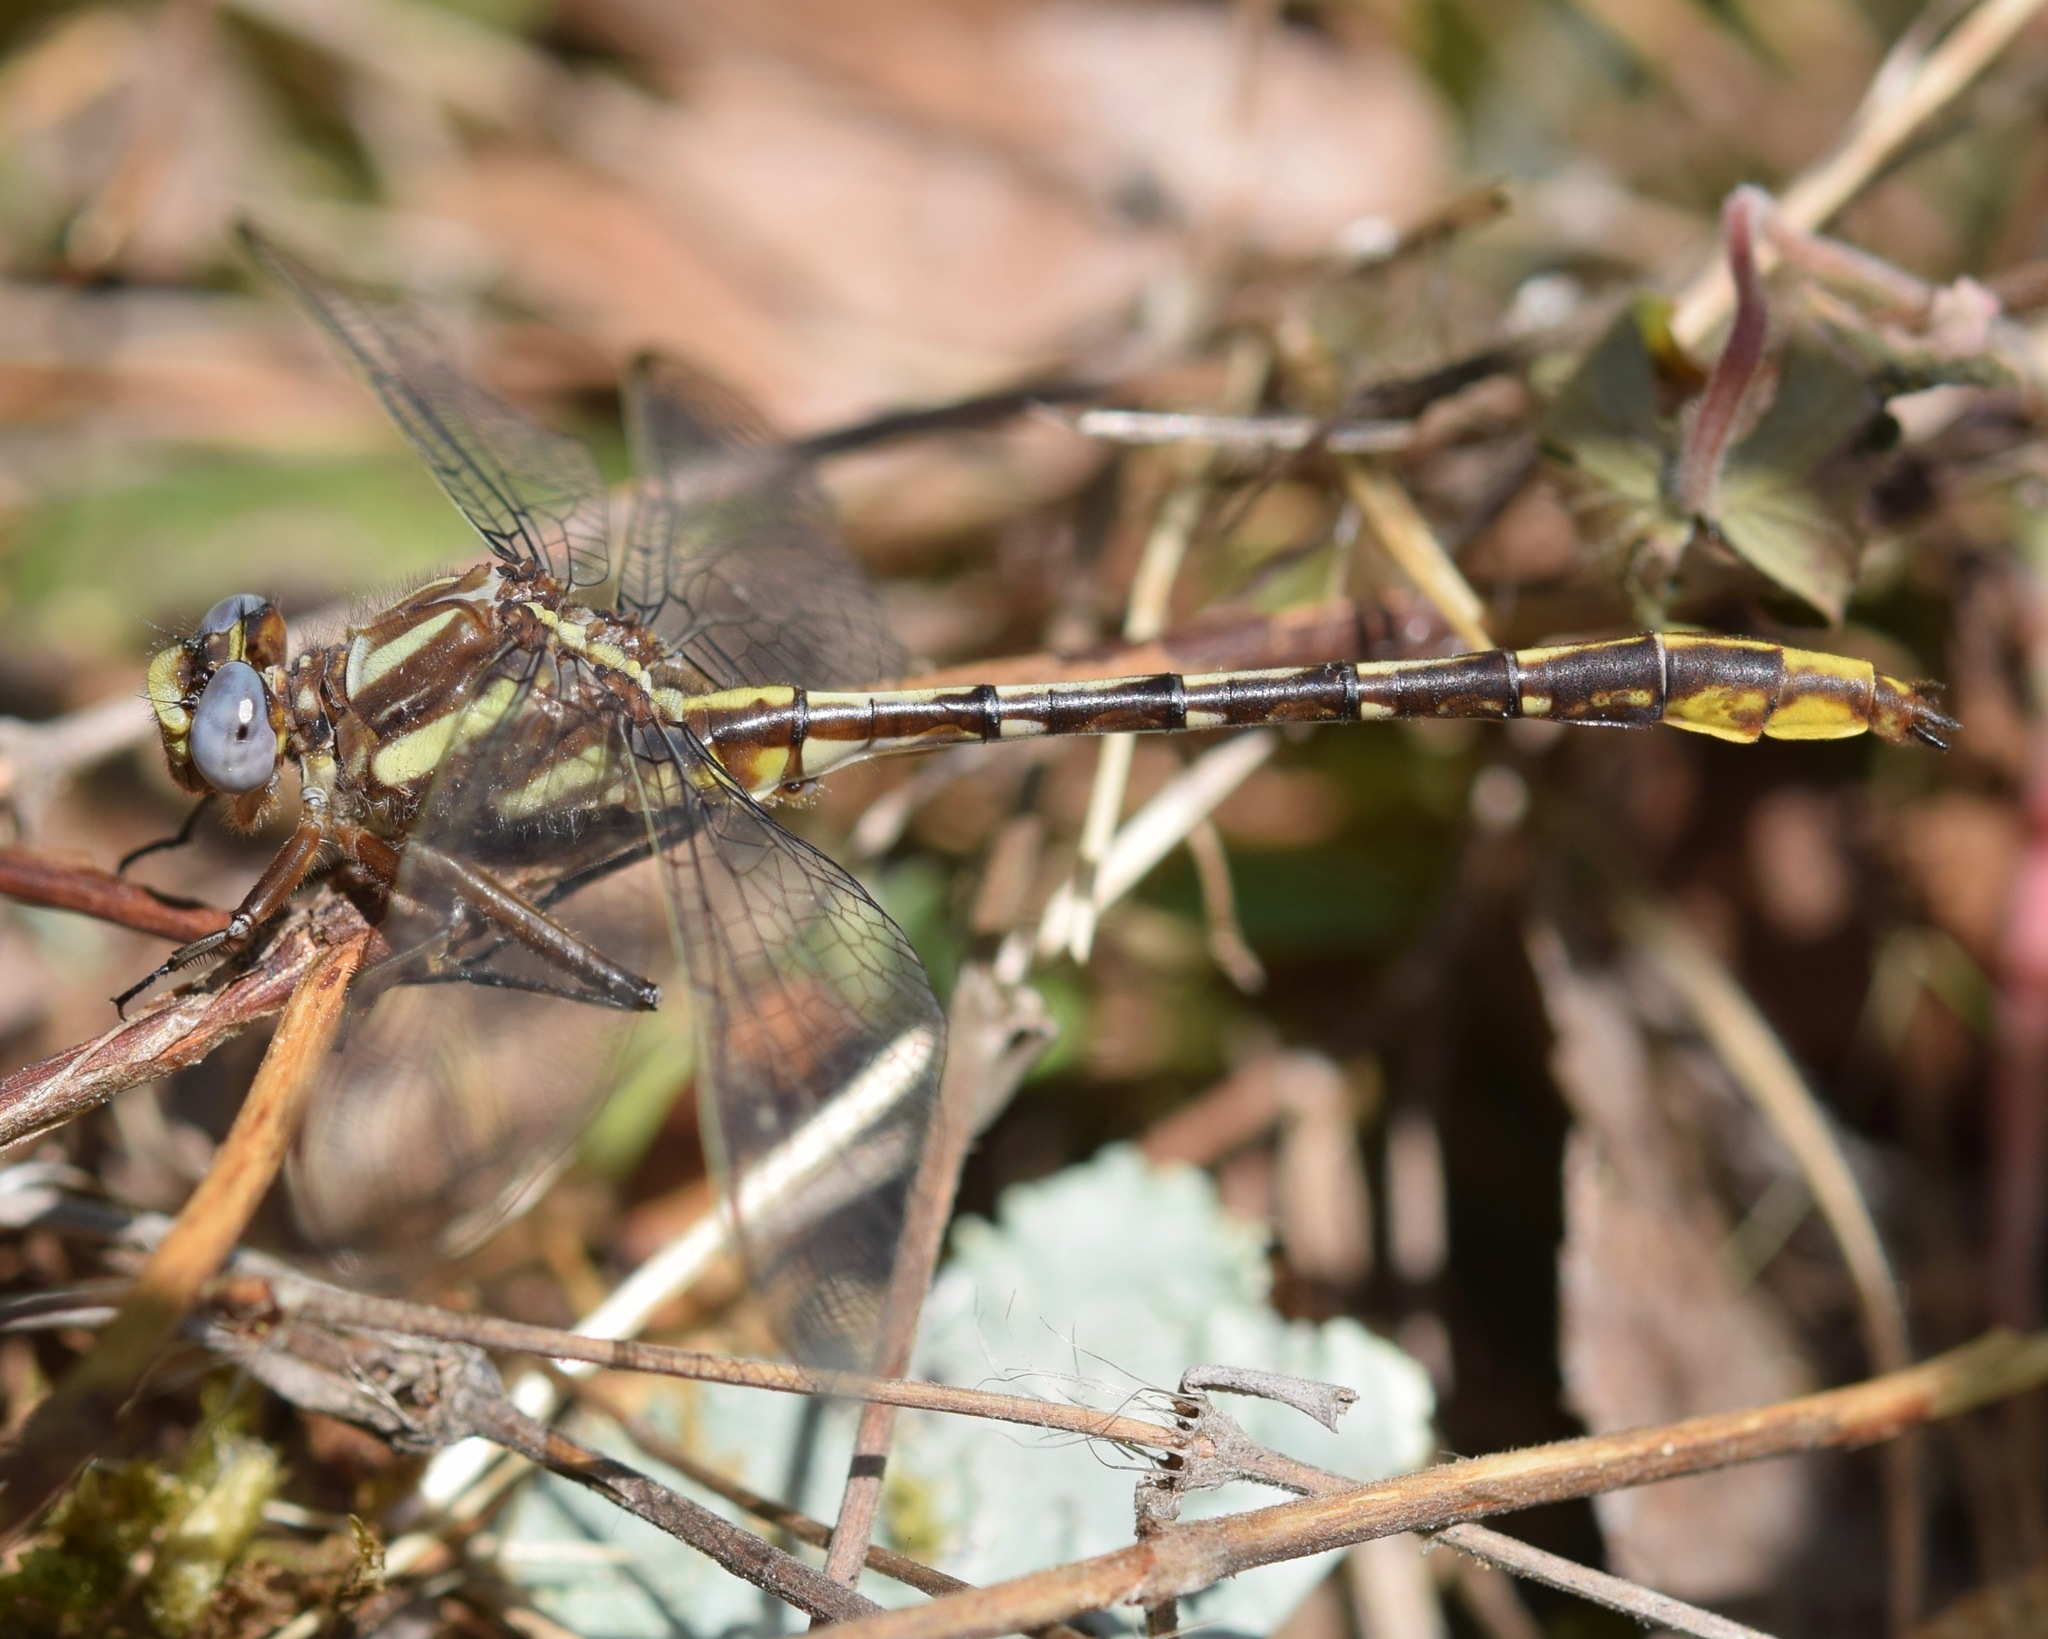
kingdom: Animalia
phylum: Arthropoda
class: Insecta
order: Odonata
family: Gomphidae
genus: Phanogomphus
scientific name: Phanogomphus exilis
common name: Lancet clubtail
